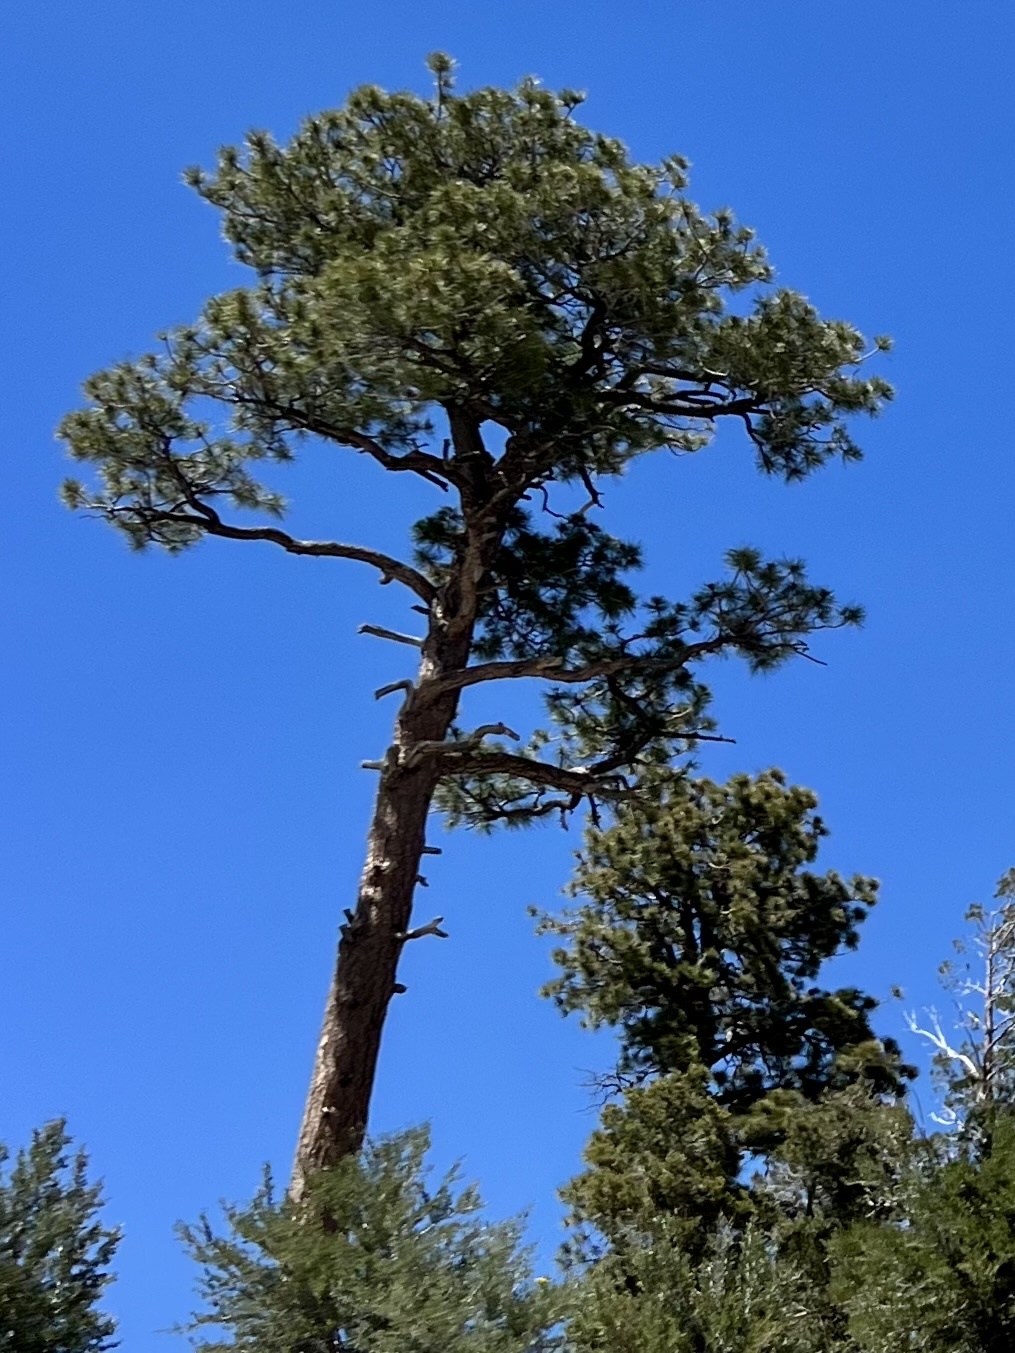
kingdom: Plantae
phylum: Tracheophyta
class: Pinopsida
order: Pinales
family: Pinaceae
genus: Pinus
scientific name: Pinus ponderosa
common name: Western yellow-pine
